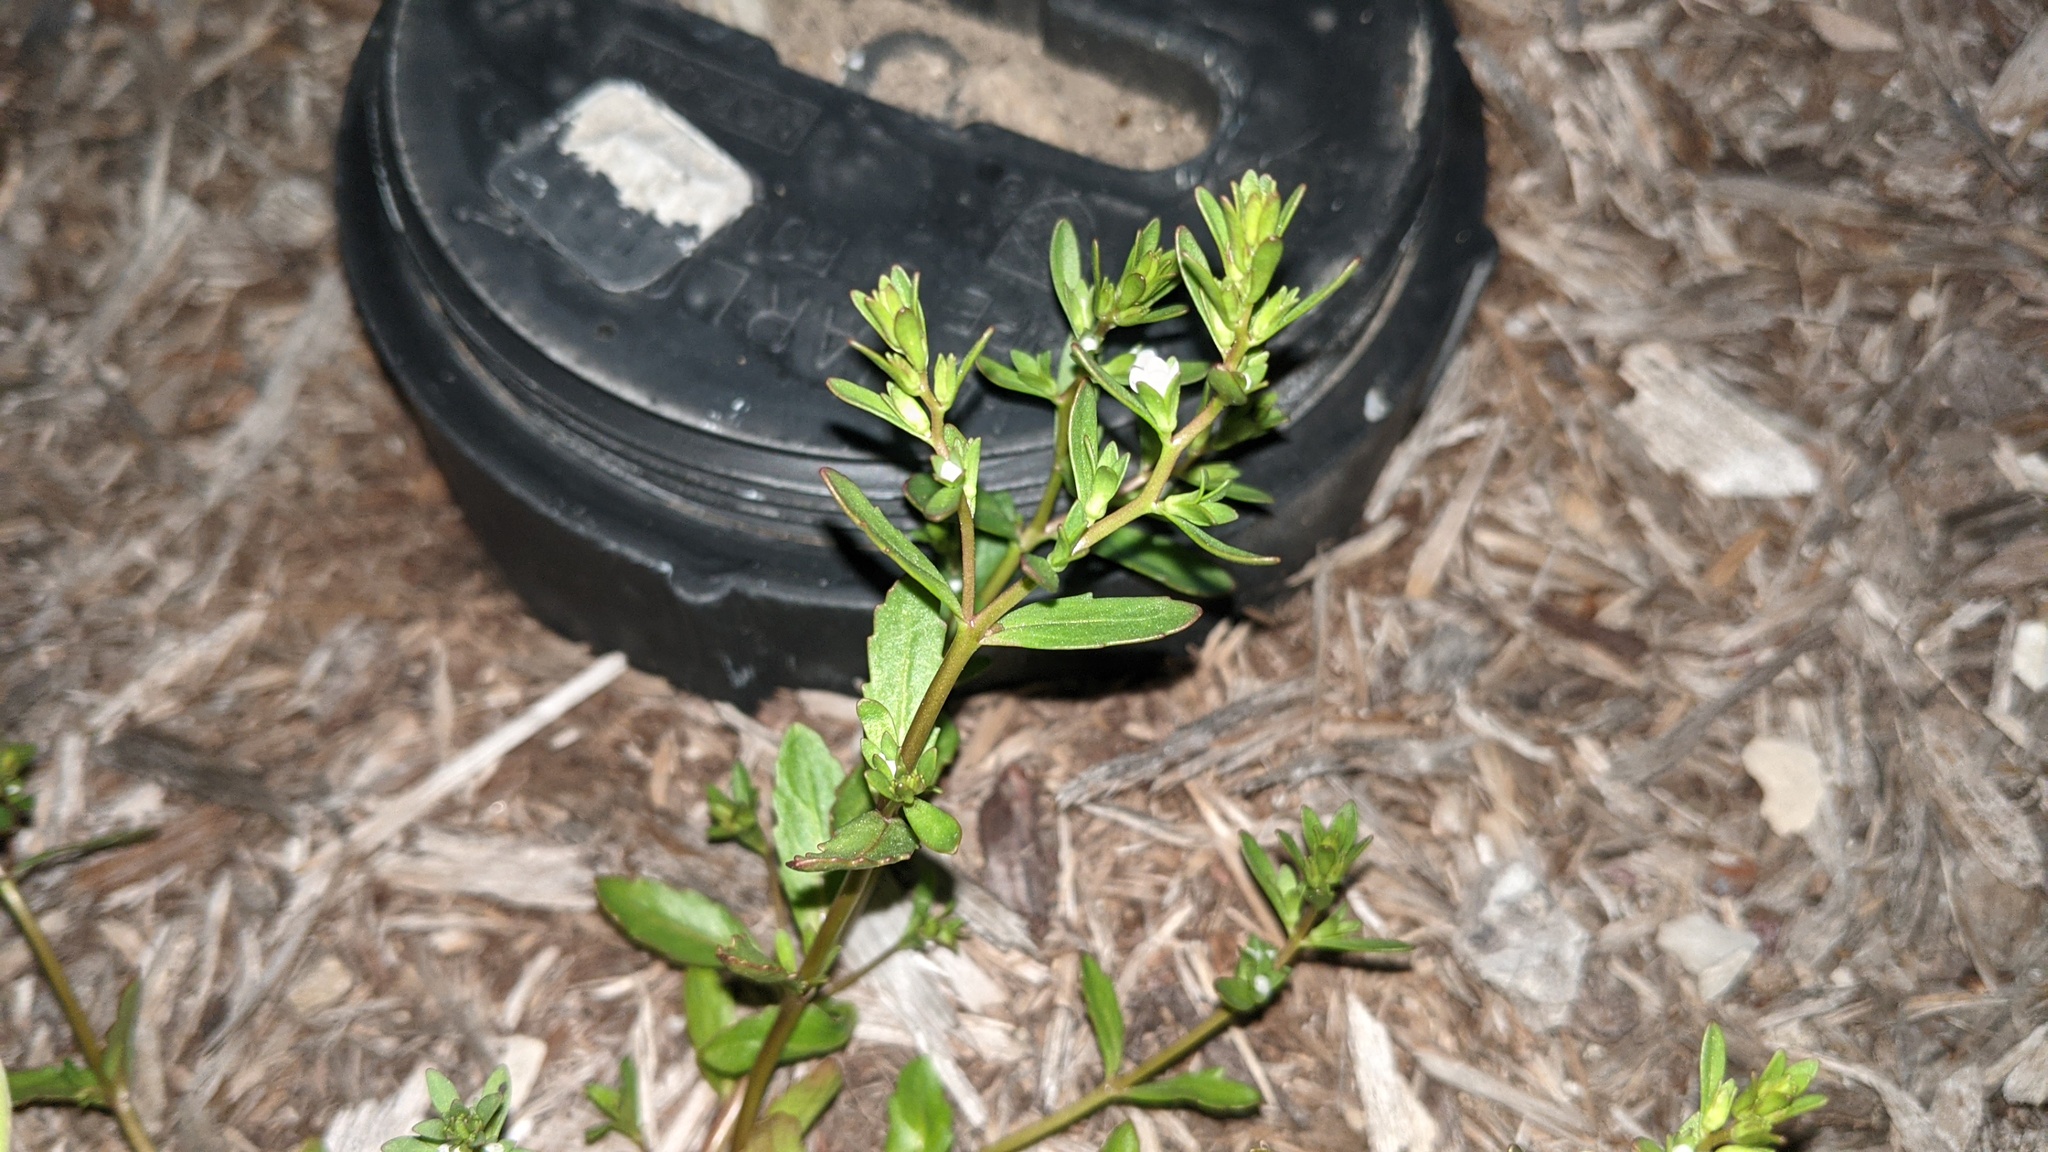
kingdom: Plantae
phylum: Tracheophyta
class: Magnoliopsida
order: Lamiales
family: Plantaginaceae
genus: Veronica
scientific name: Veronica peregrina
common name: Neckweed
